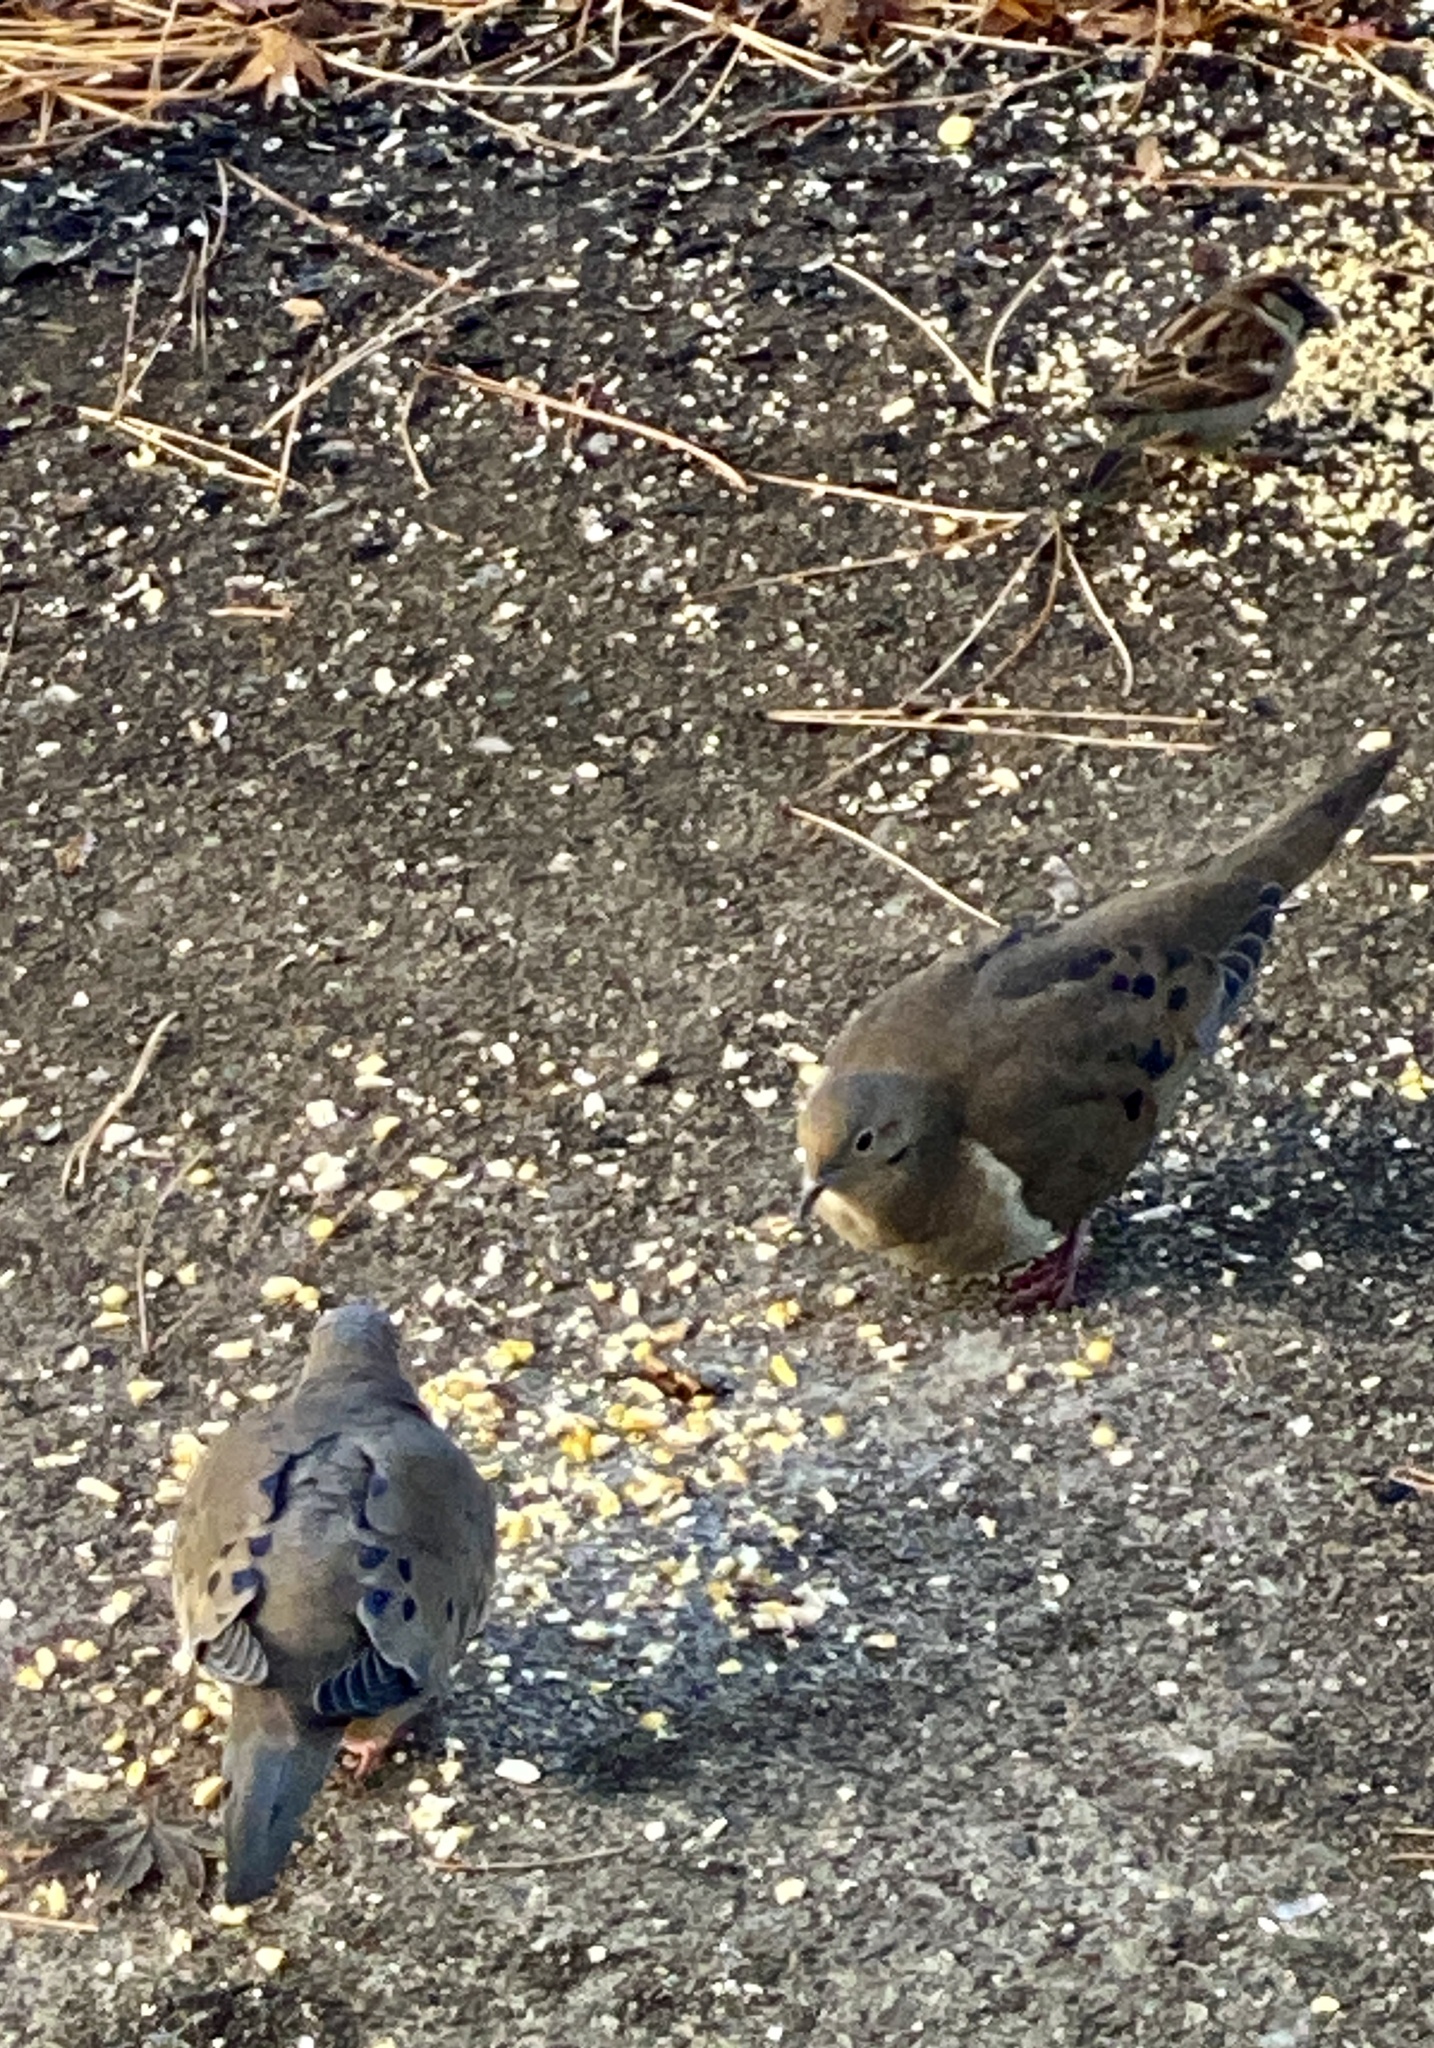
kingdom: Animalia
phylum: Chordata
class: Aves
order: Columbiformes
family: Columbidae
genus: Zenaida
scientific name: Zenaida macroura
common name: Mourning dove
